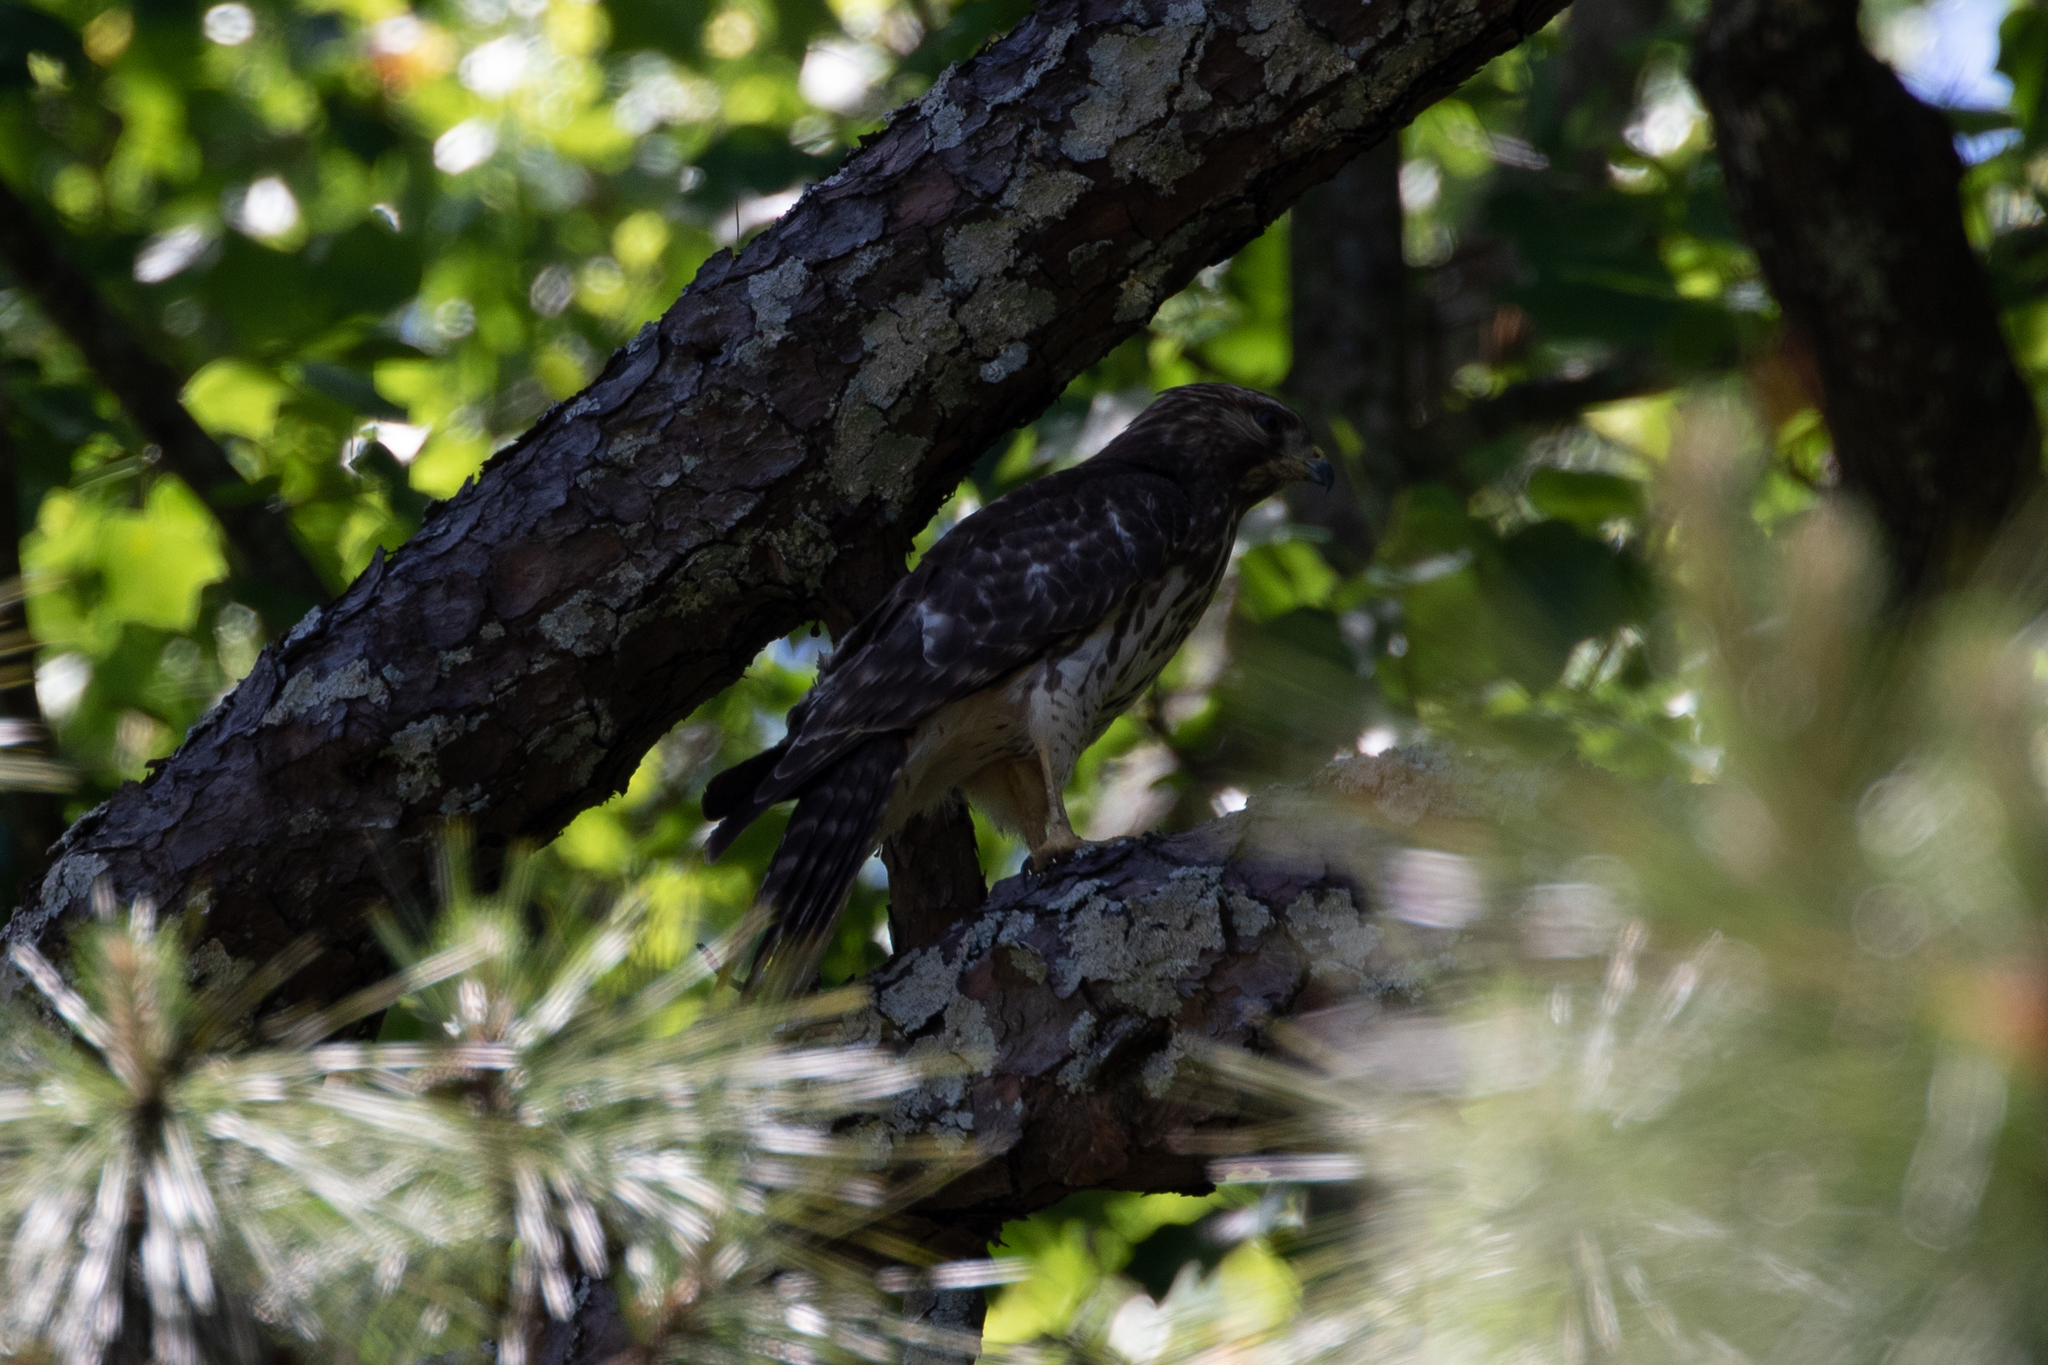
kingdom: Animalia
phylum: Chordata
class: Aves
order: Accipitriformes
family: Accipitridae
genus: Buteo
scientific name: Buteo lineatus
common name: Red-shouldered hawk
